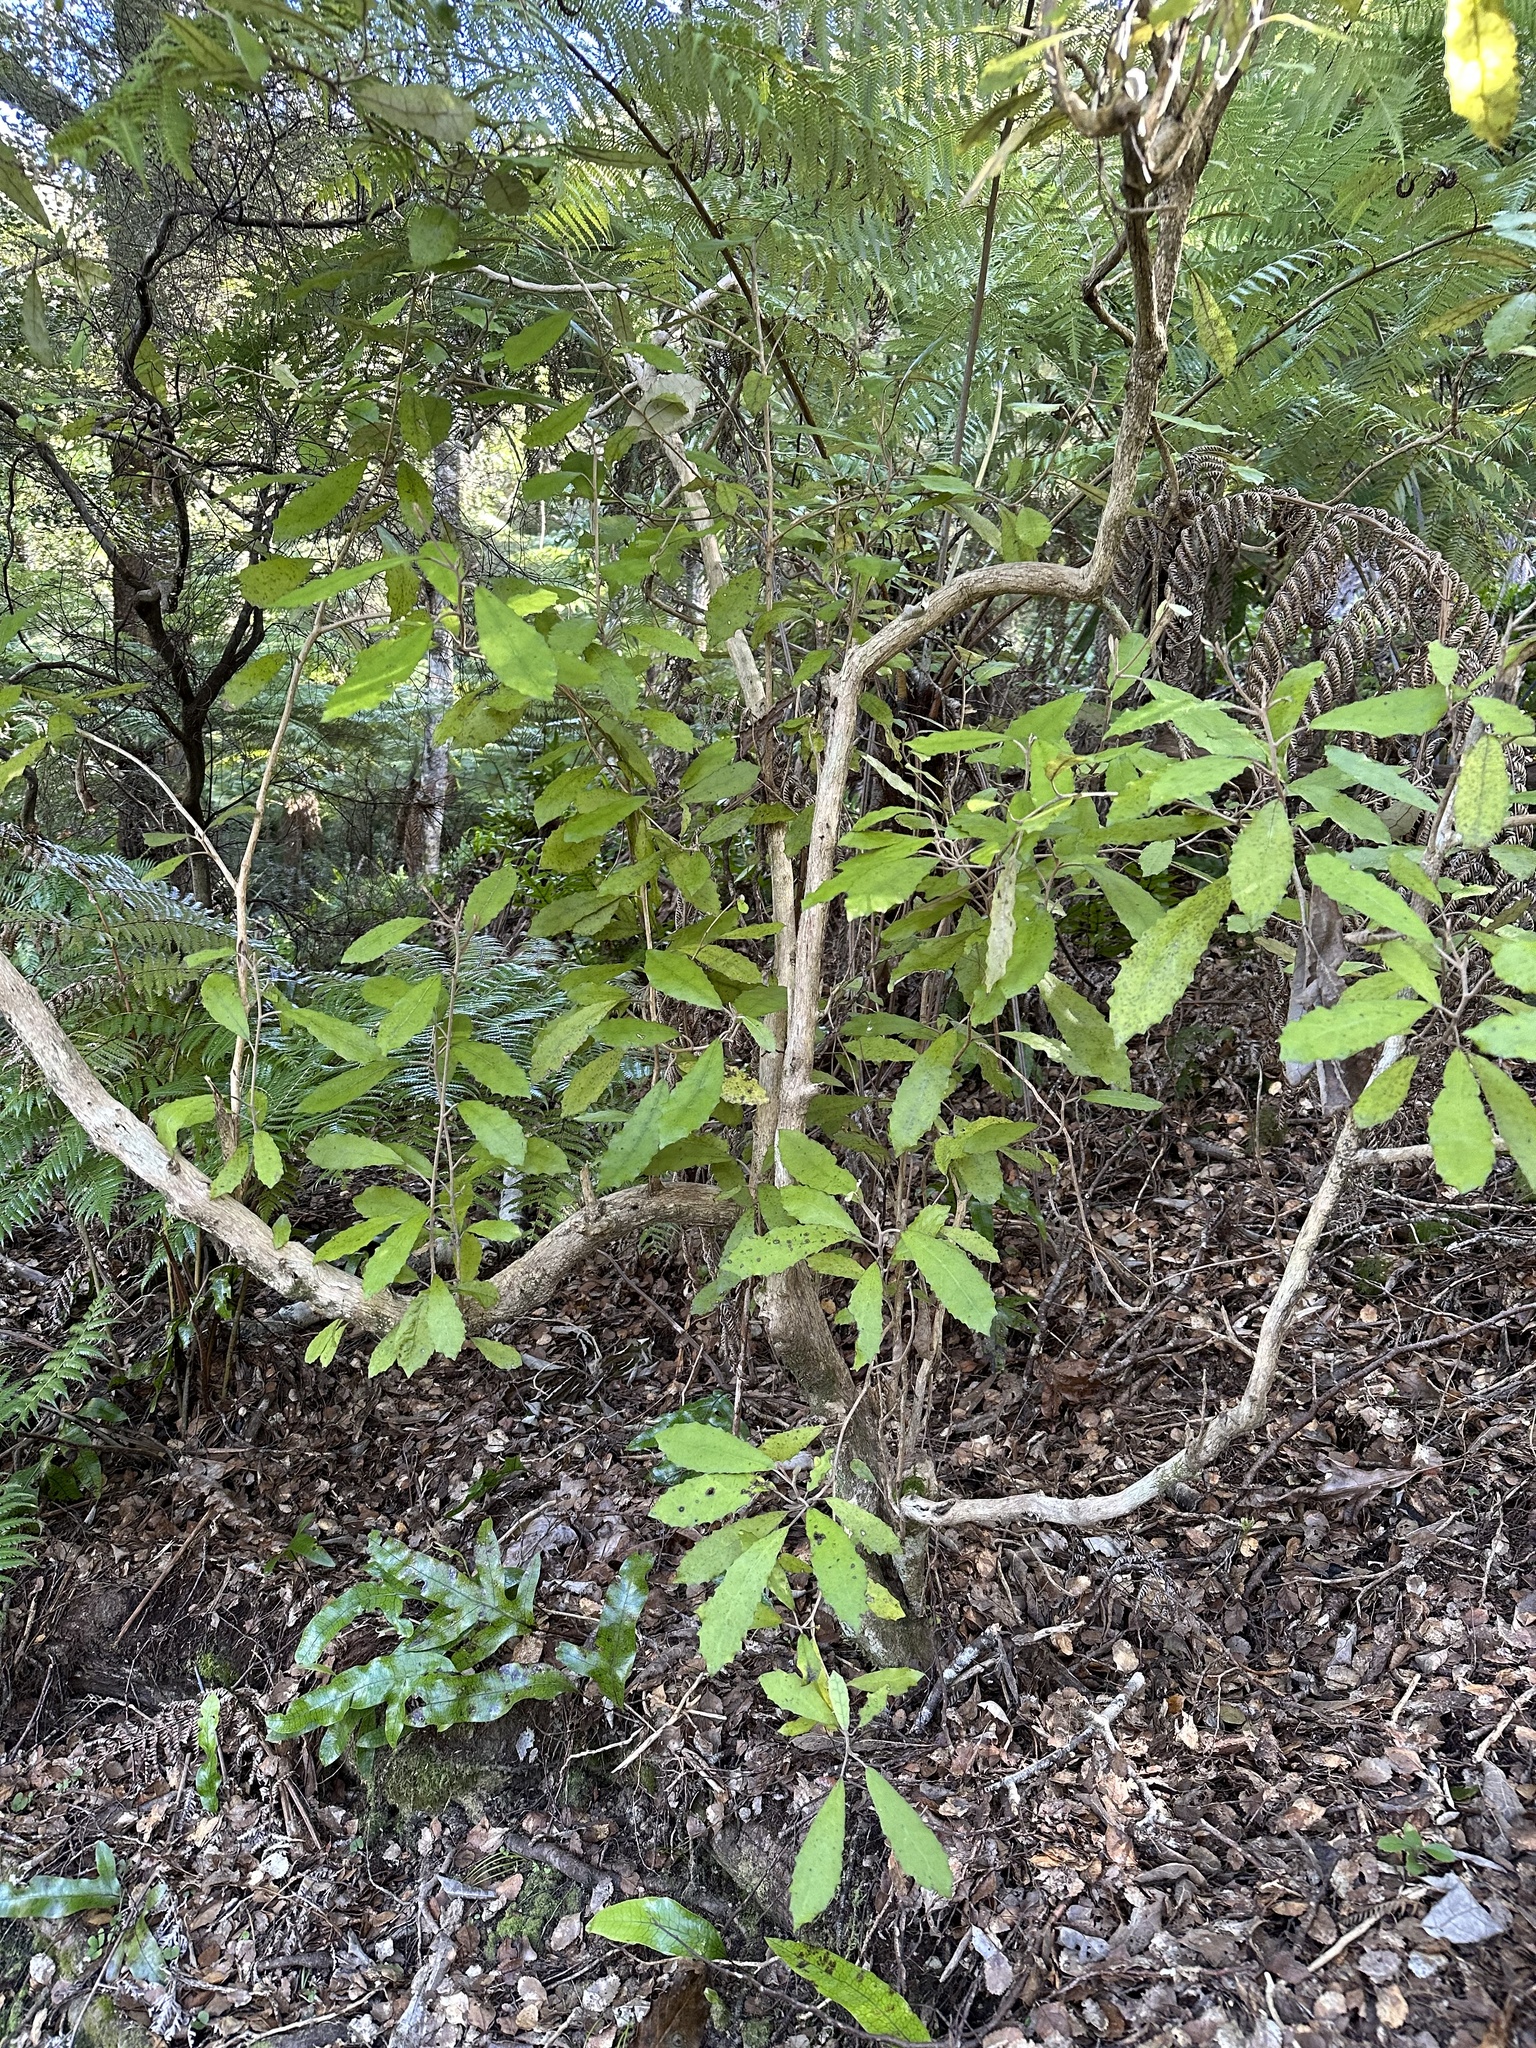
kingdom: Plantae
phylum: Tracheophyta
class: Magnoliopsida
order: Asterales
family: Asteraceae
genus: Olearia
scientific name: Olearia rani
